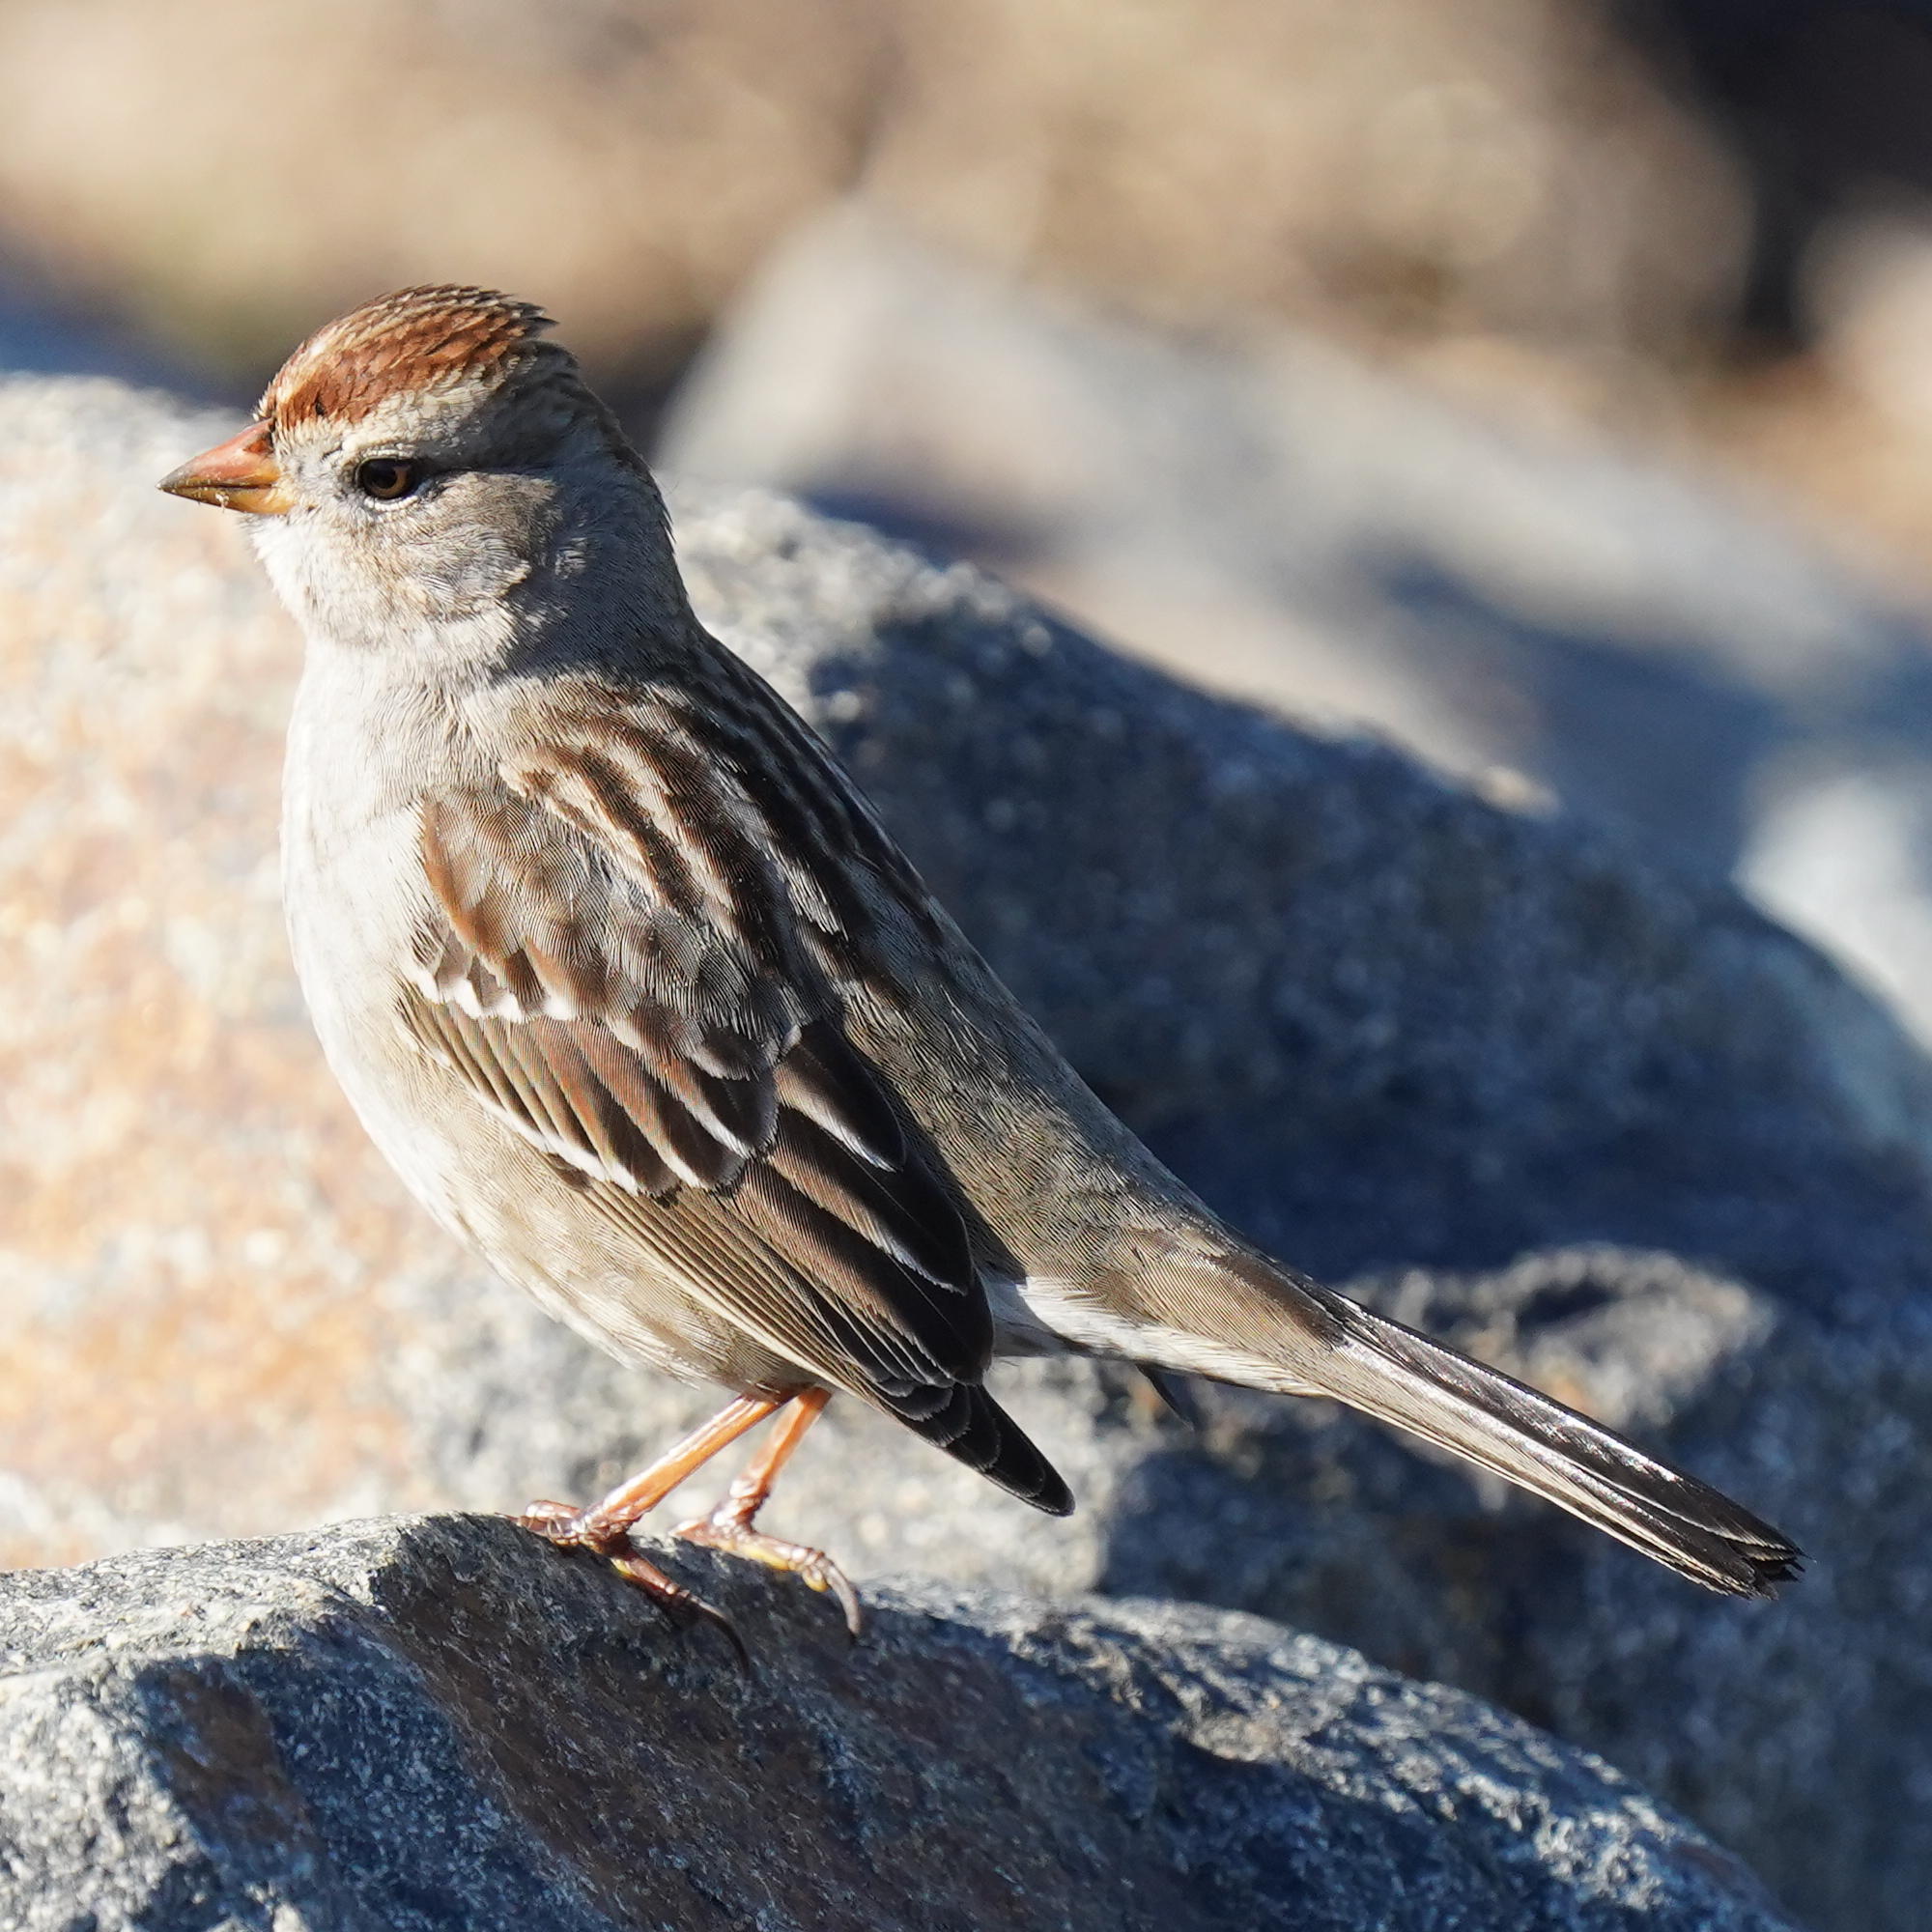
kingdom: Animalia
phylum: Chordata
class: Aves
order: Passeriformes
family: Passerellidae
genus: Zonotrichia
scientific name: Zonotrichia leucophrys
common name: White-crowned sparrow
